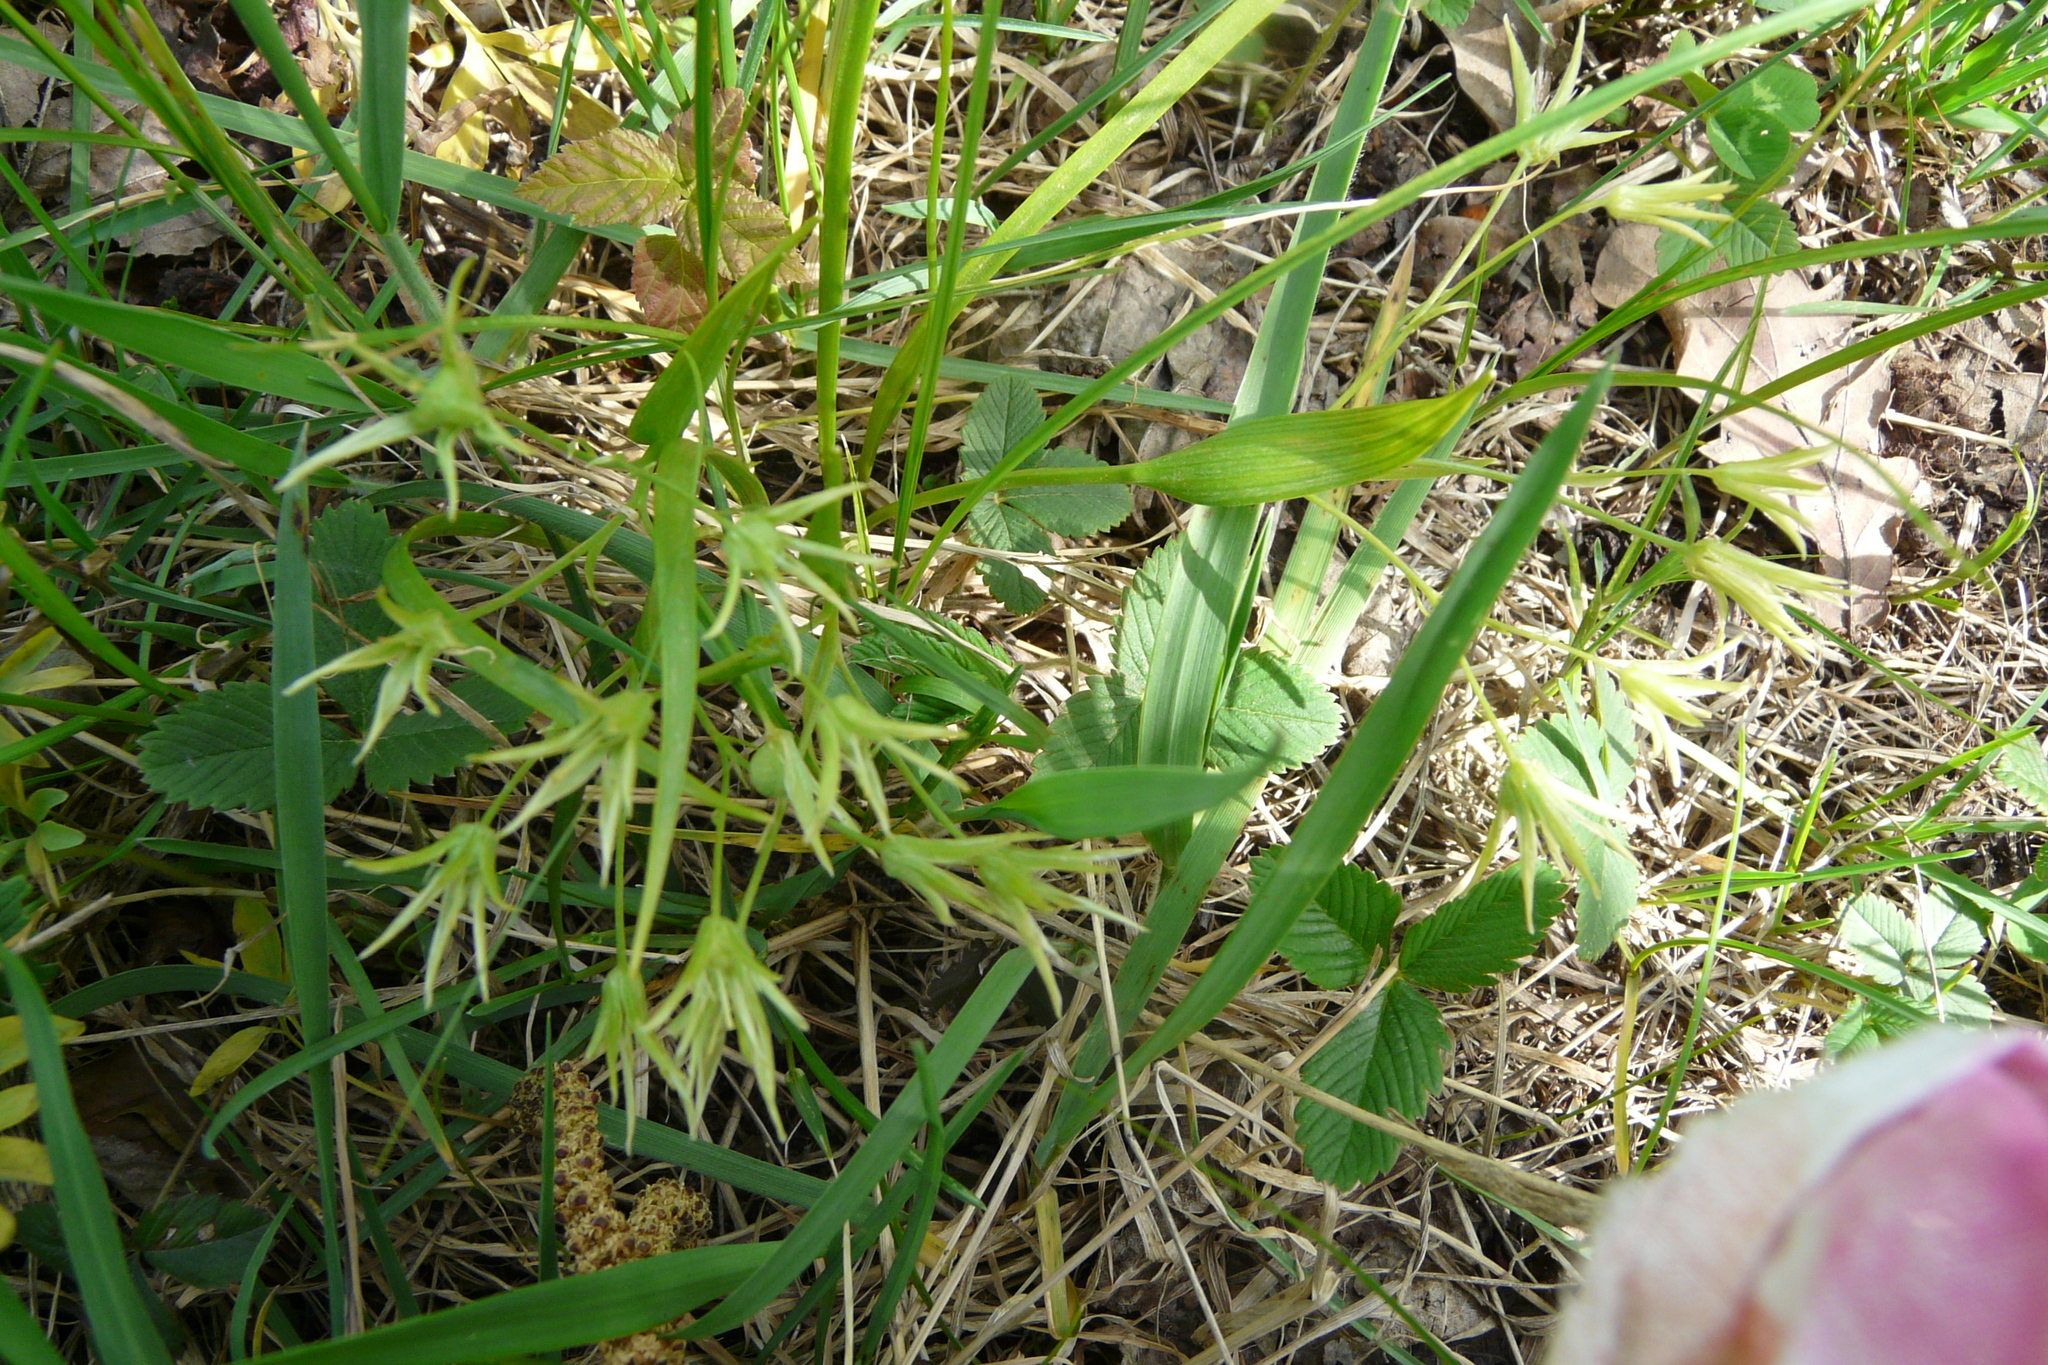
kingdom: Plantae
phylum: Tracheophyta
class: Liliopsida
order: Liliales
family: Liliaceae
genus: Gagea
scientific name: Gagea minima
